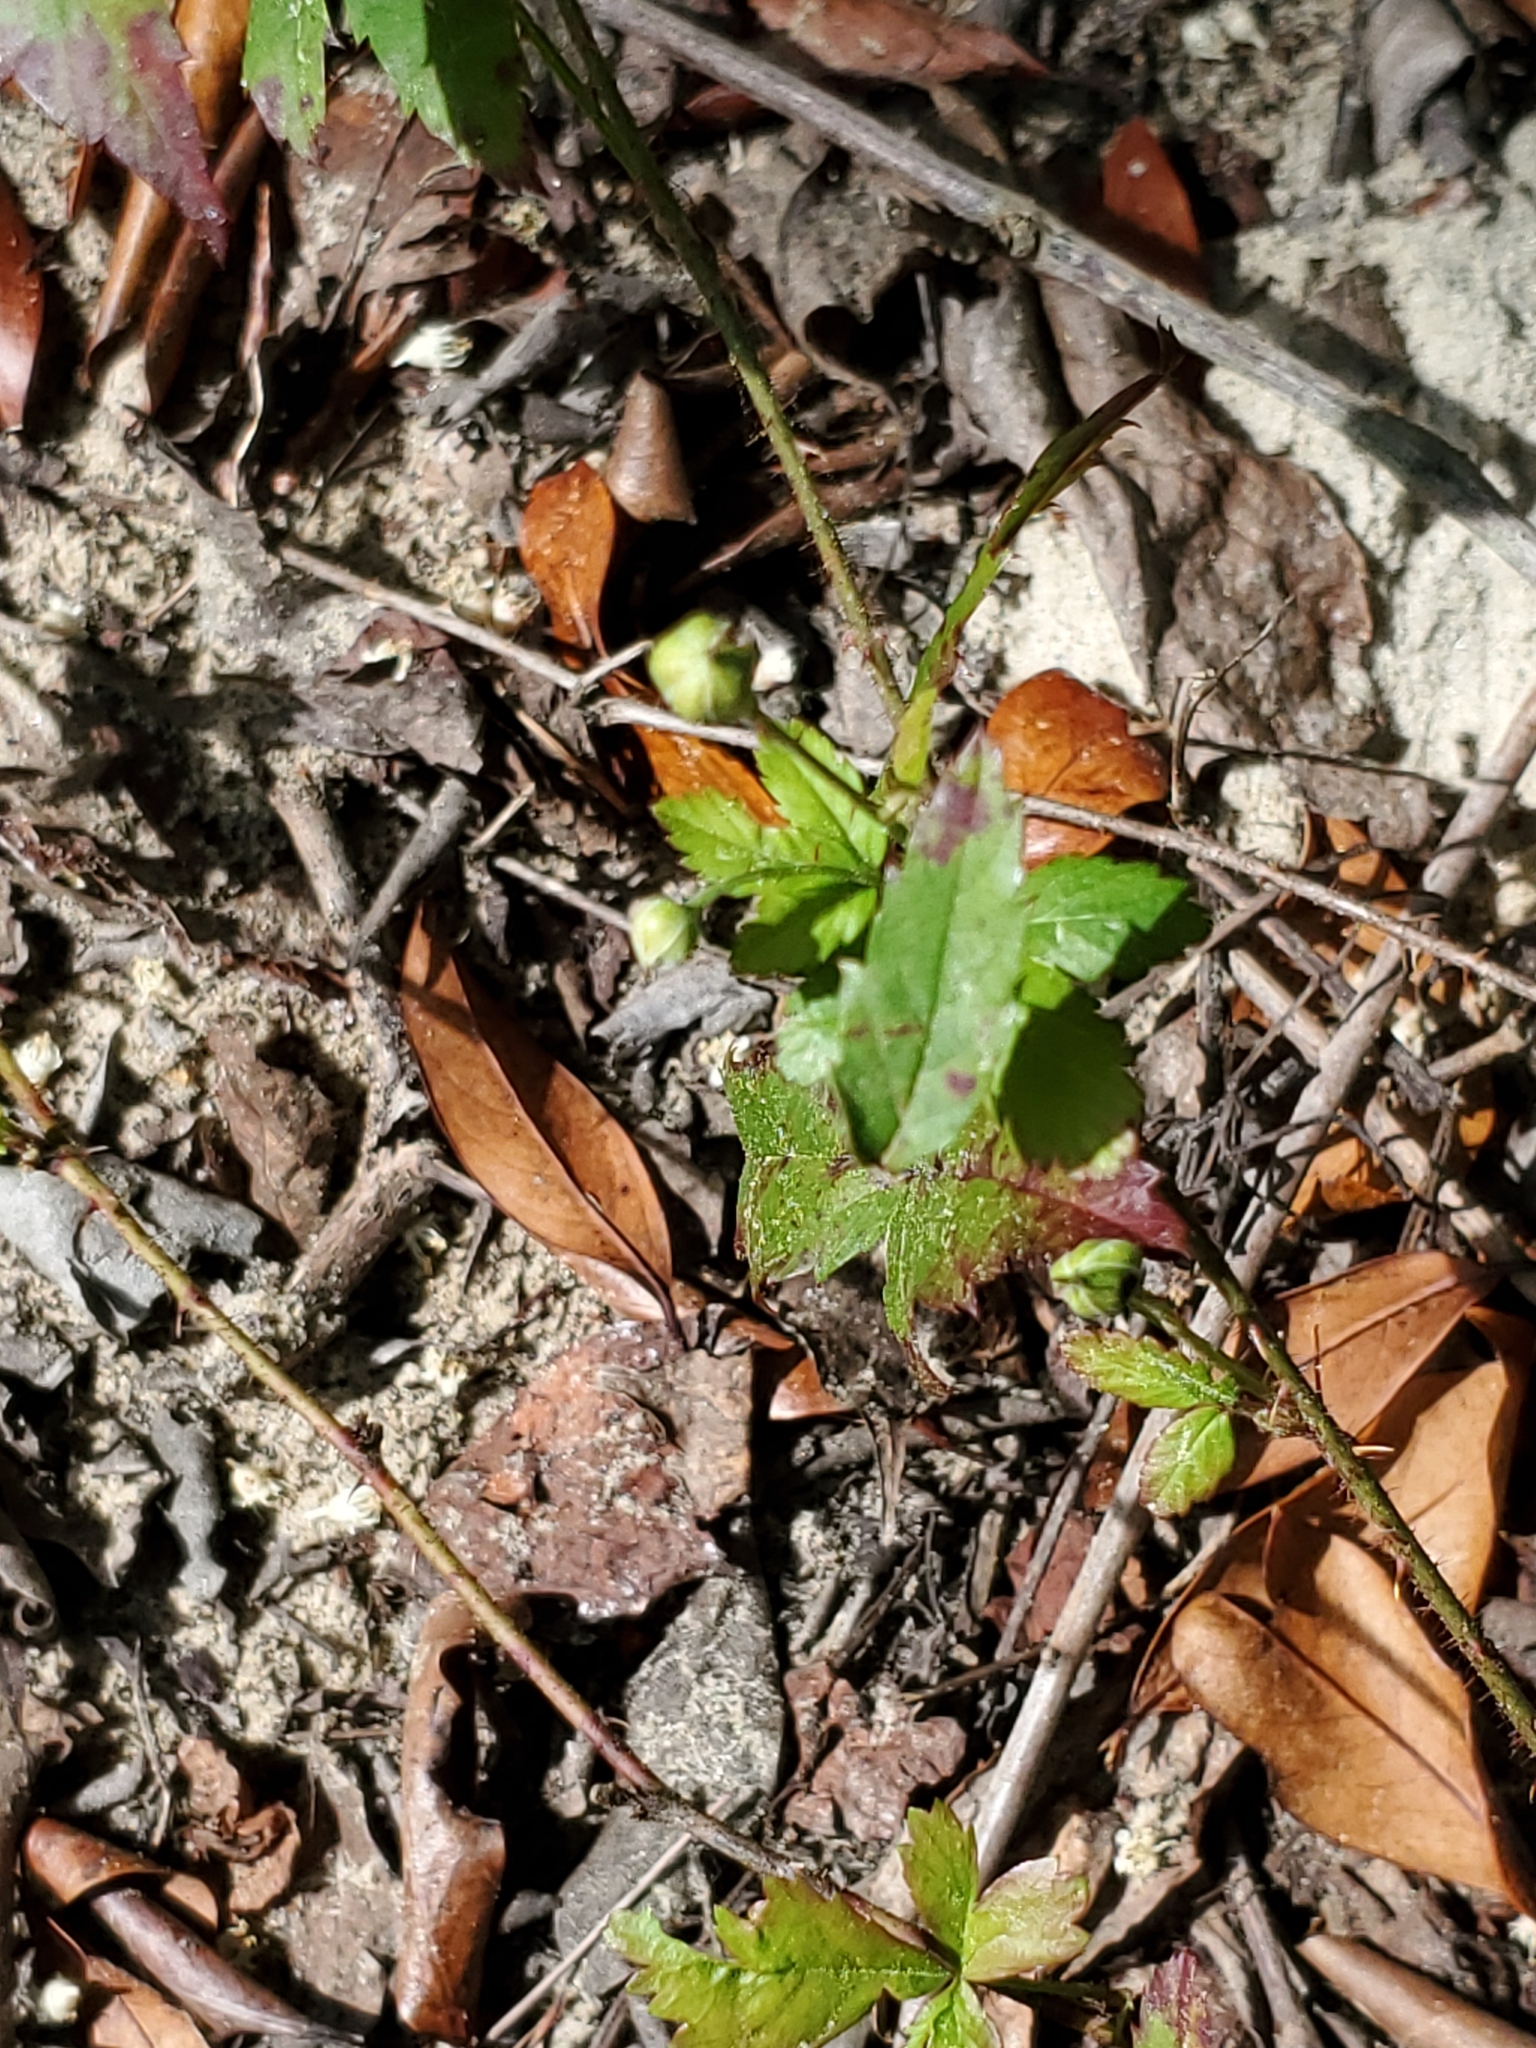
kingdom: Plantae
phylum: Tracheophyta
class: Magnoliopsida
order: Rosales
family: Rosaceae
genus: Rubus
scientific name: Rubus trivialis
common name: Southern dewberry
